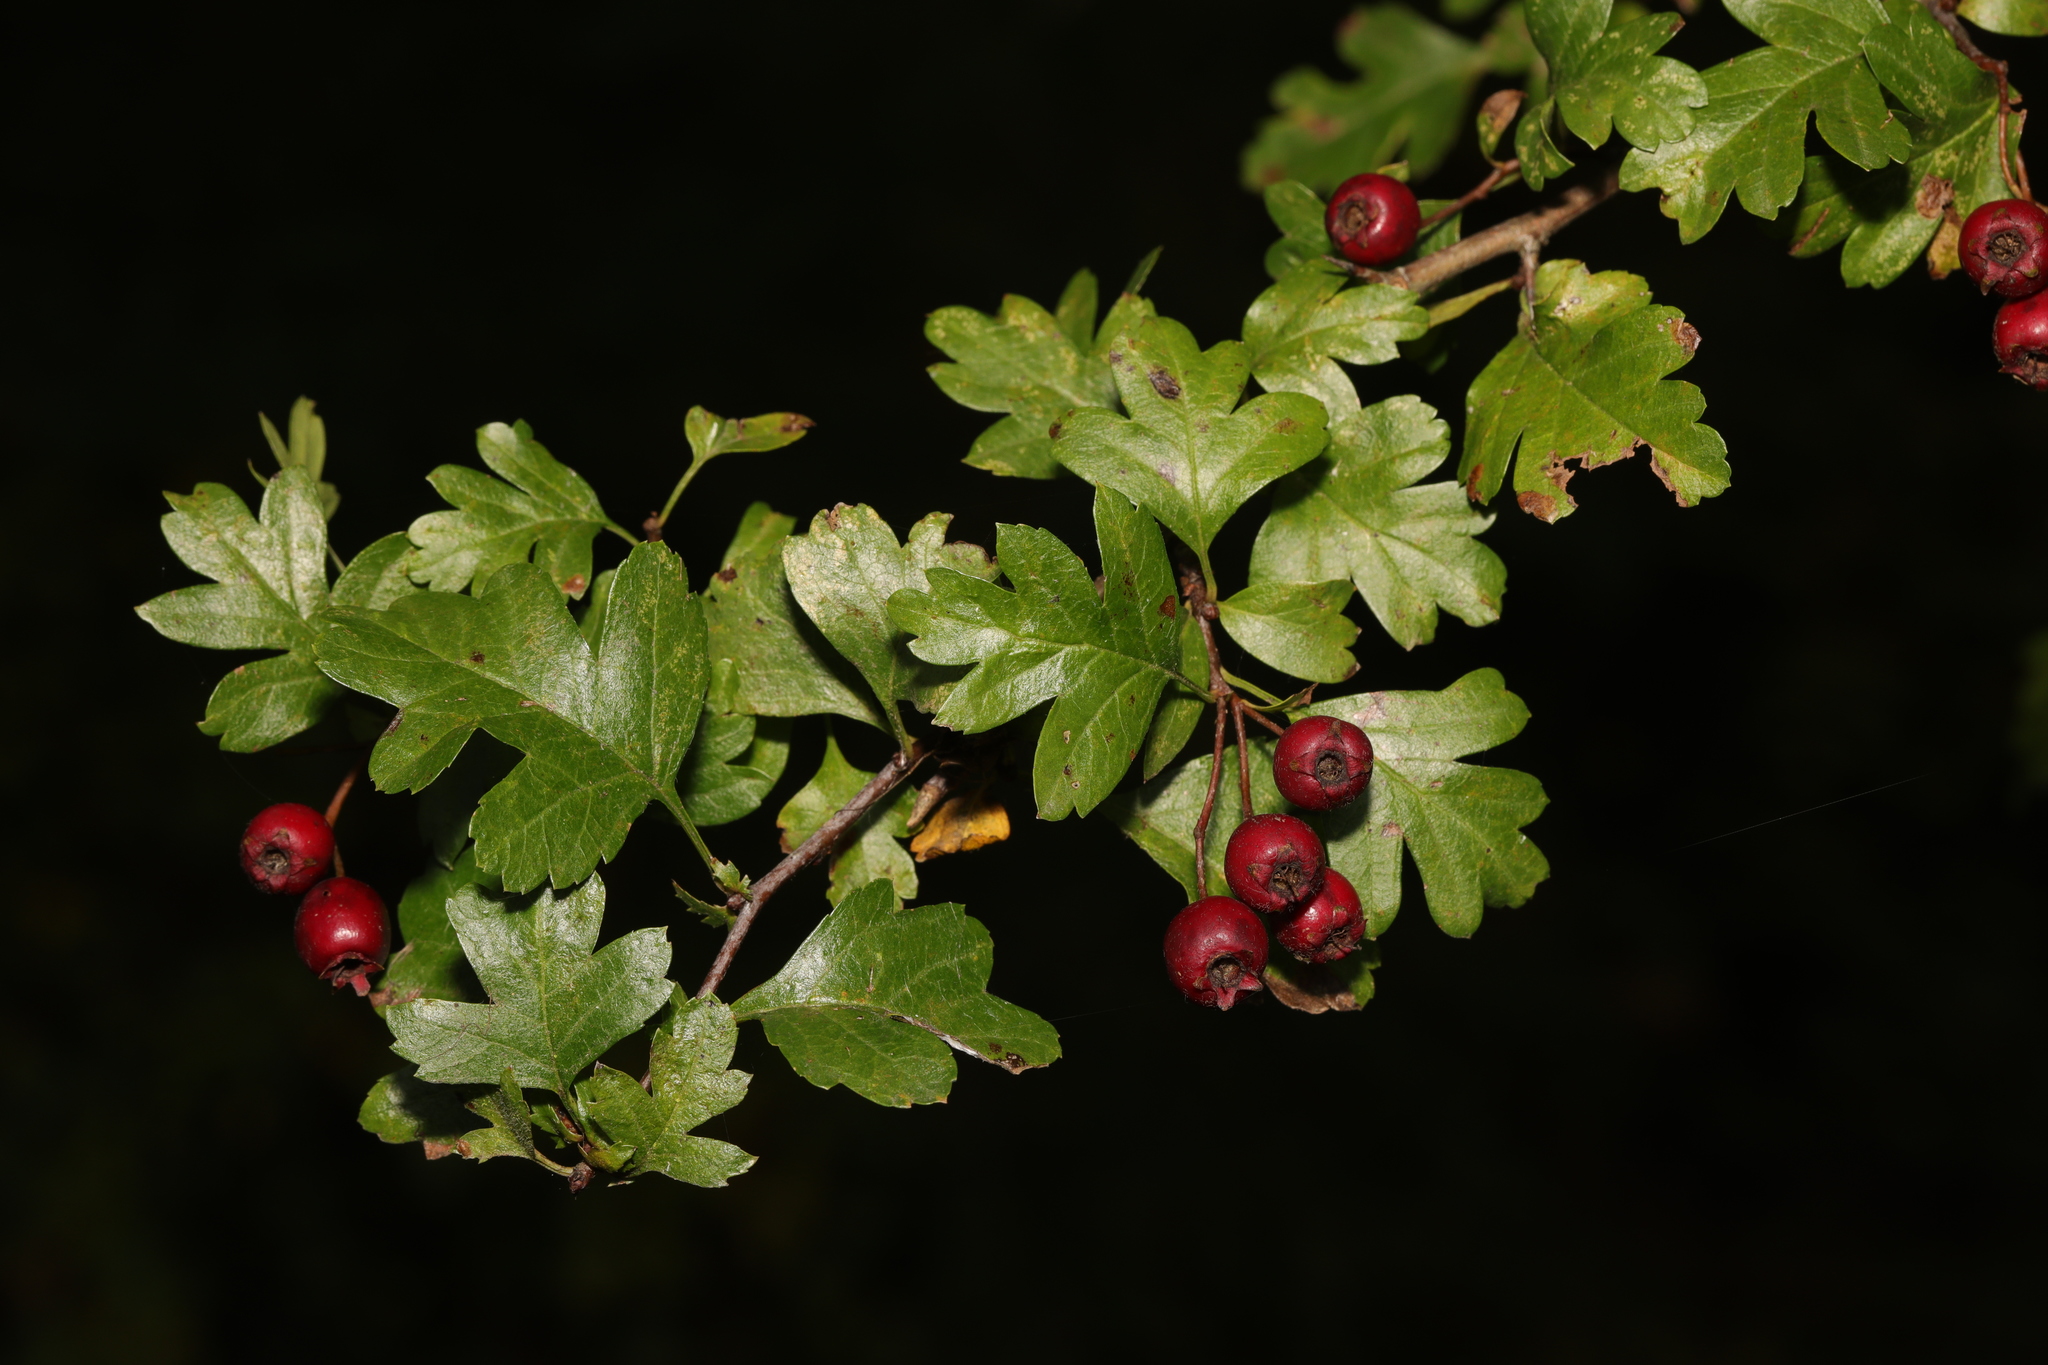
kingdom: Plantae
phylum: Tracheophyta
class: Magnoliopsida
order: Rosales
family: Rosaceae
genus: Crataegus
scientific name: Crataegus monogyna
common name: Hawthorn
